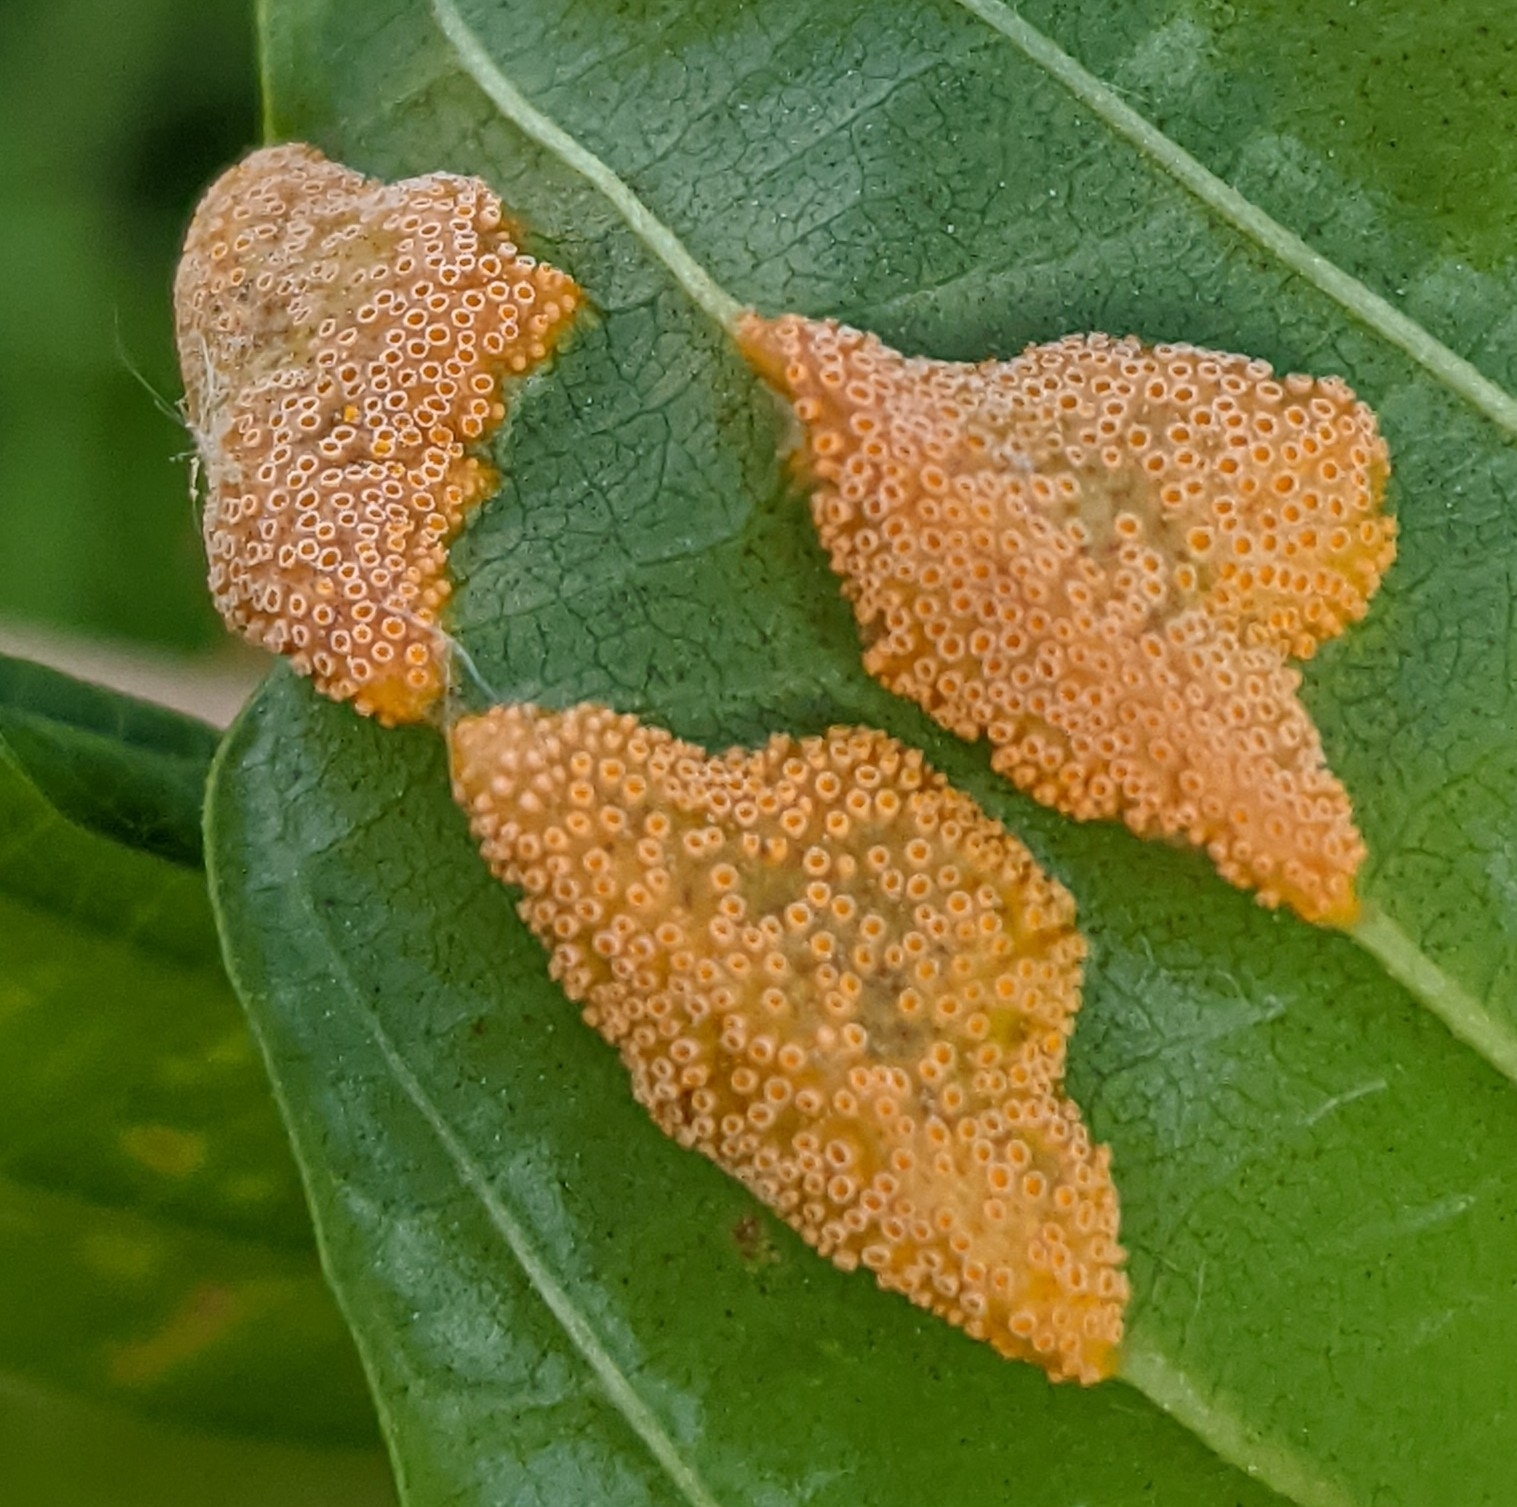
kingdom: Fungi
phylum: Basidiomycota
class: Pucciniomycetes
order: Pucciniales
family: Pucciniaceae
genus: Puccinia
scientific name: Puccinia coronata
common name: Crown rust
